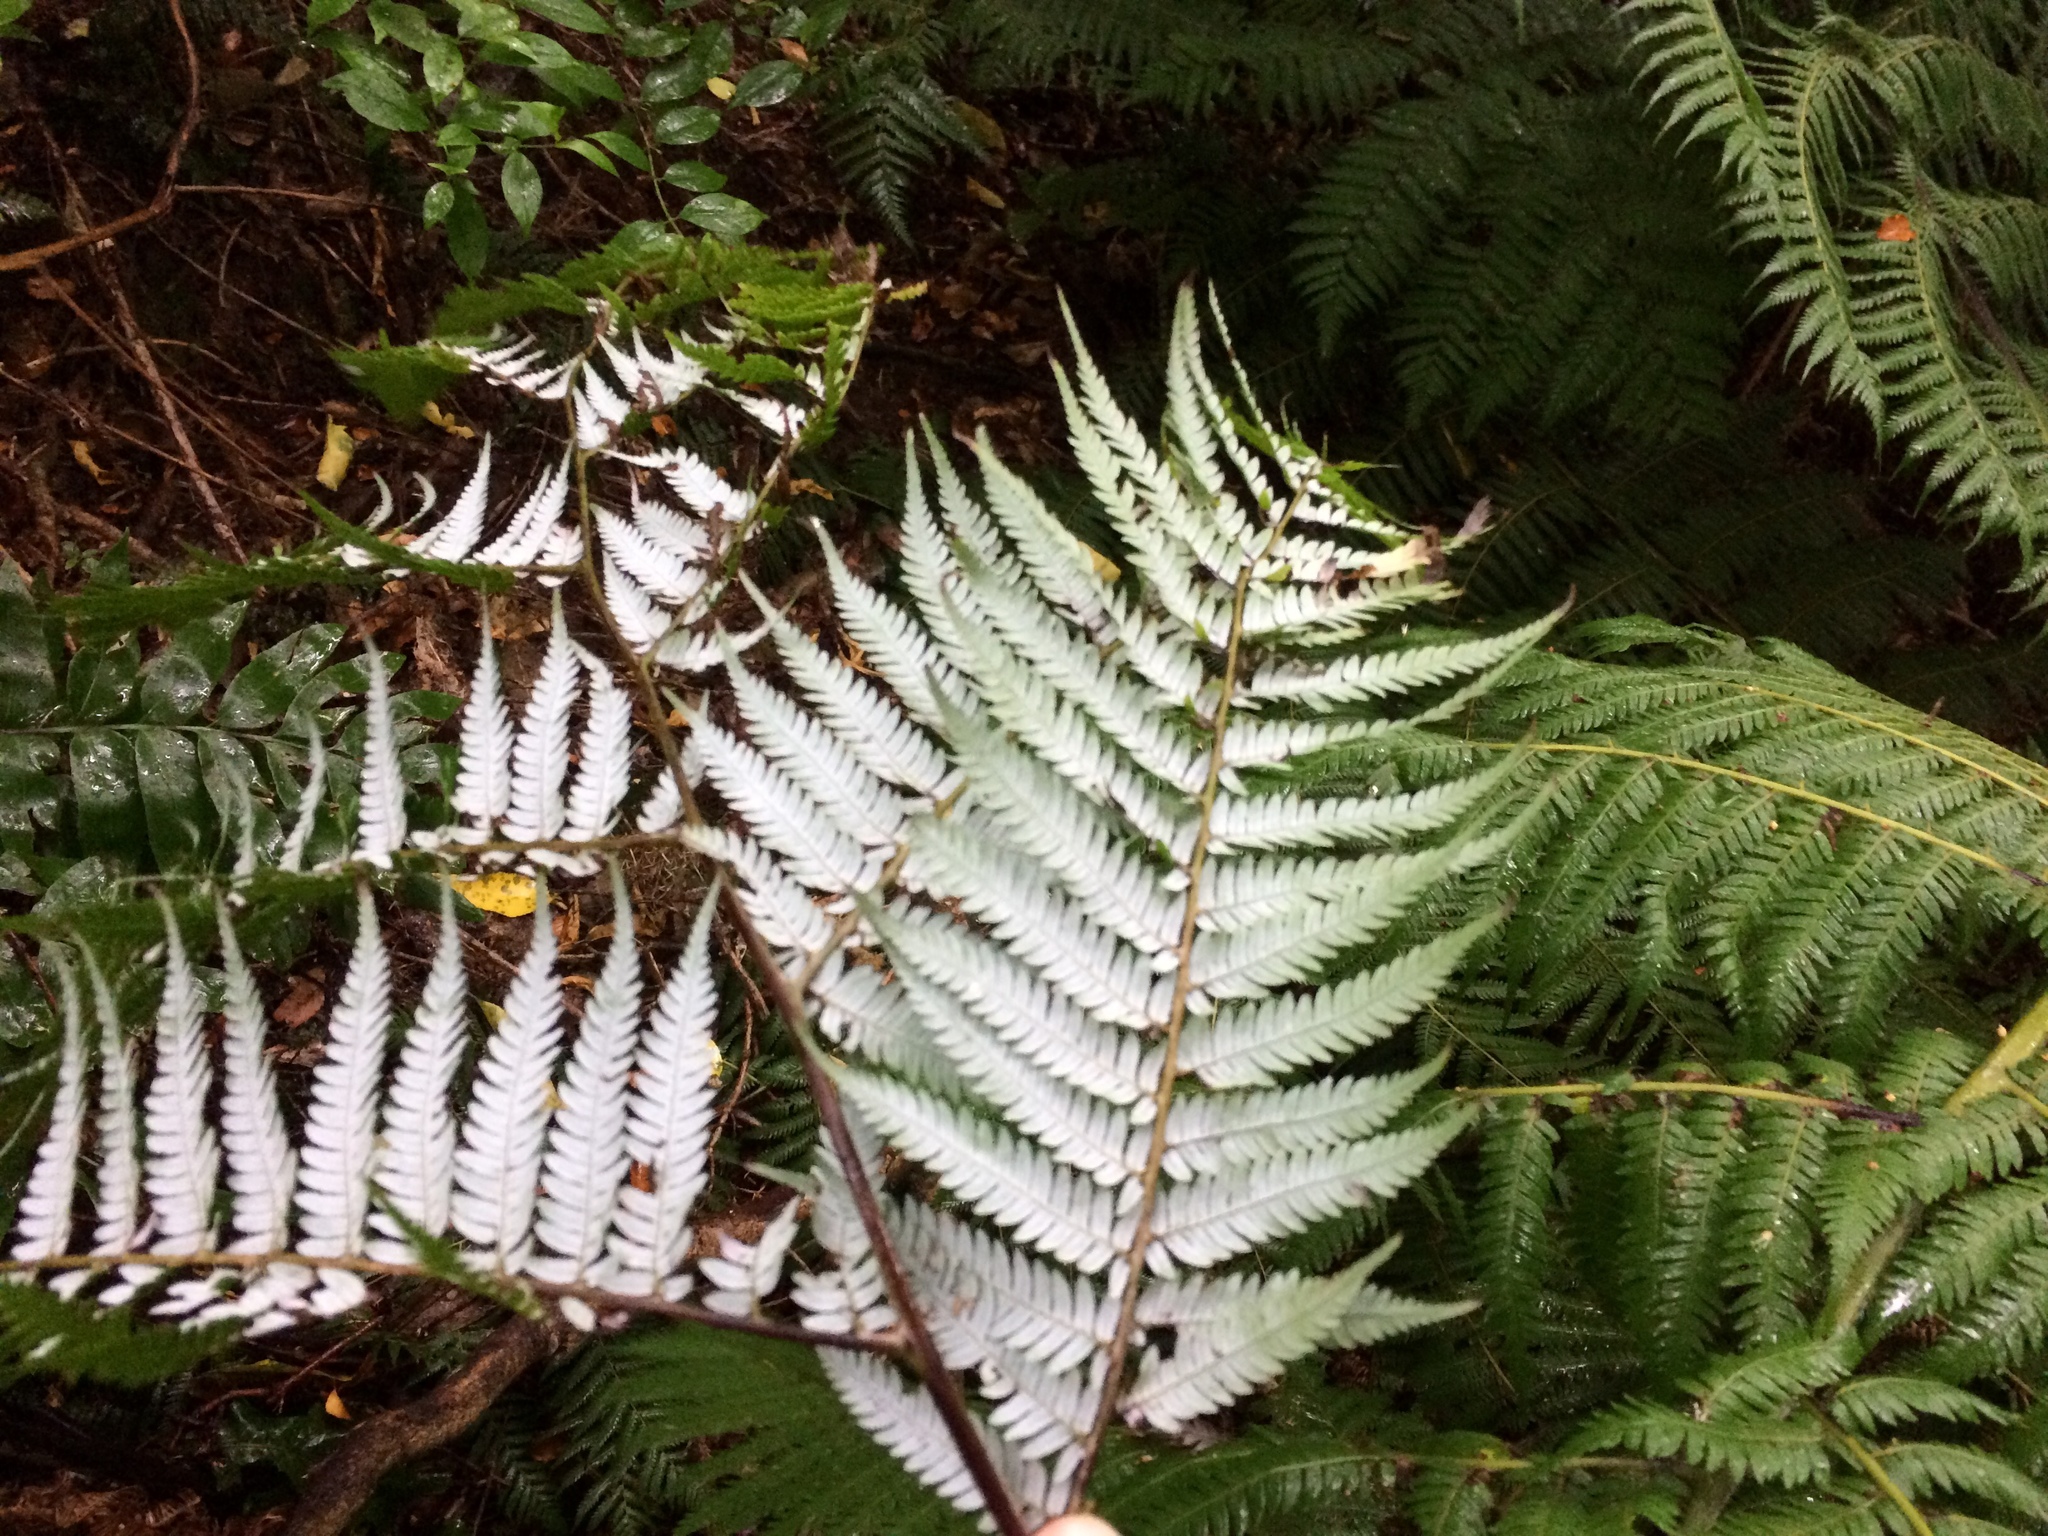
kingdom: Plantae
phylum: Tracheophyta
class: Polypodiopsida
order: Cyatheales
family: Cyatheaceae
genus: Alsophila
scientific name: Alsophila dealbata
